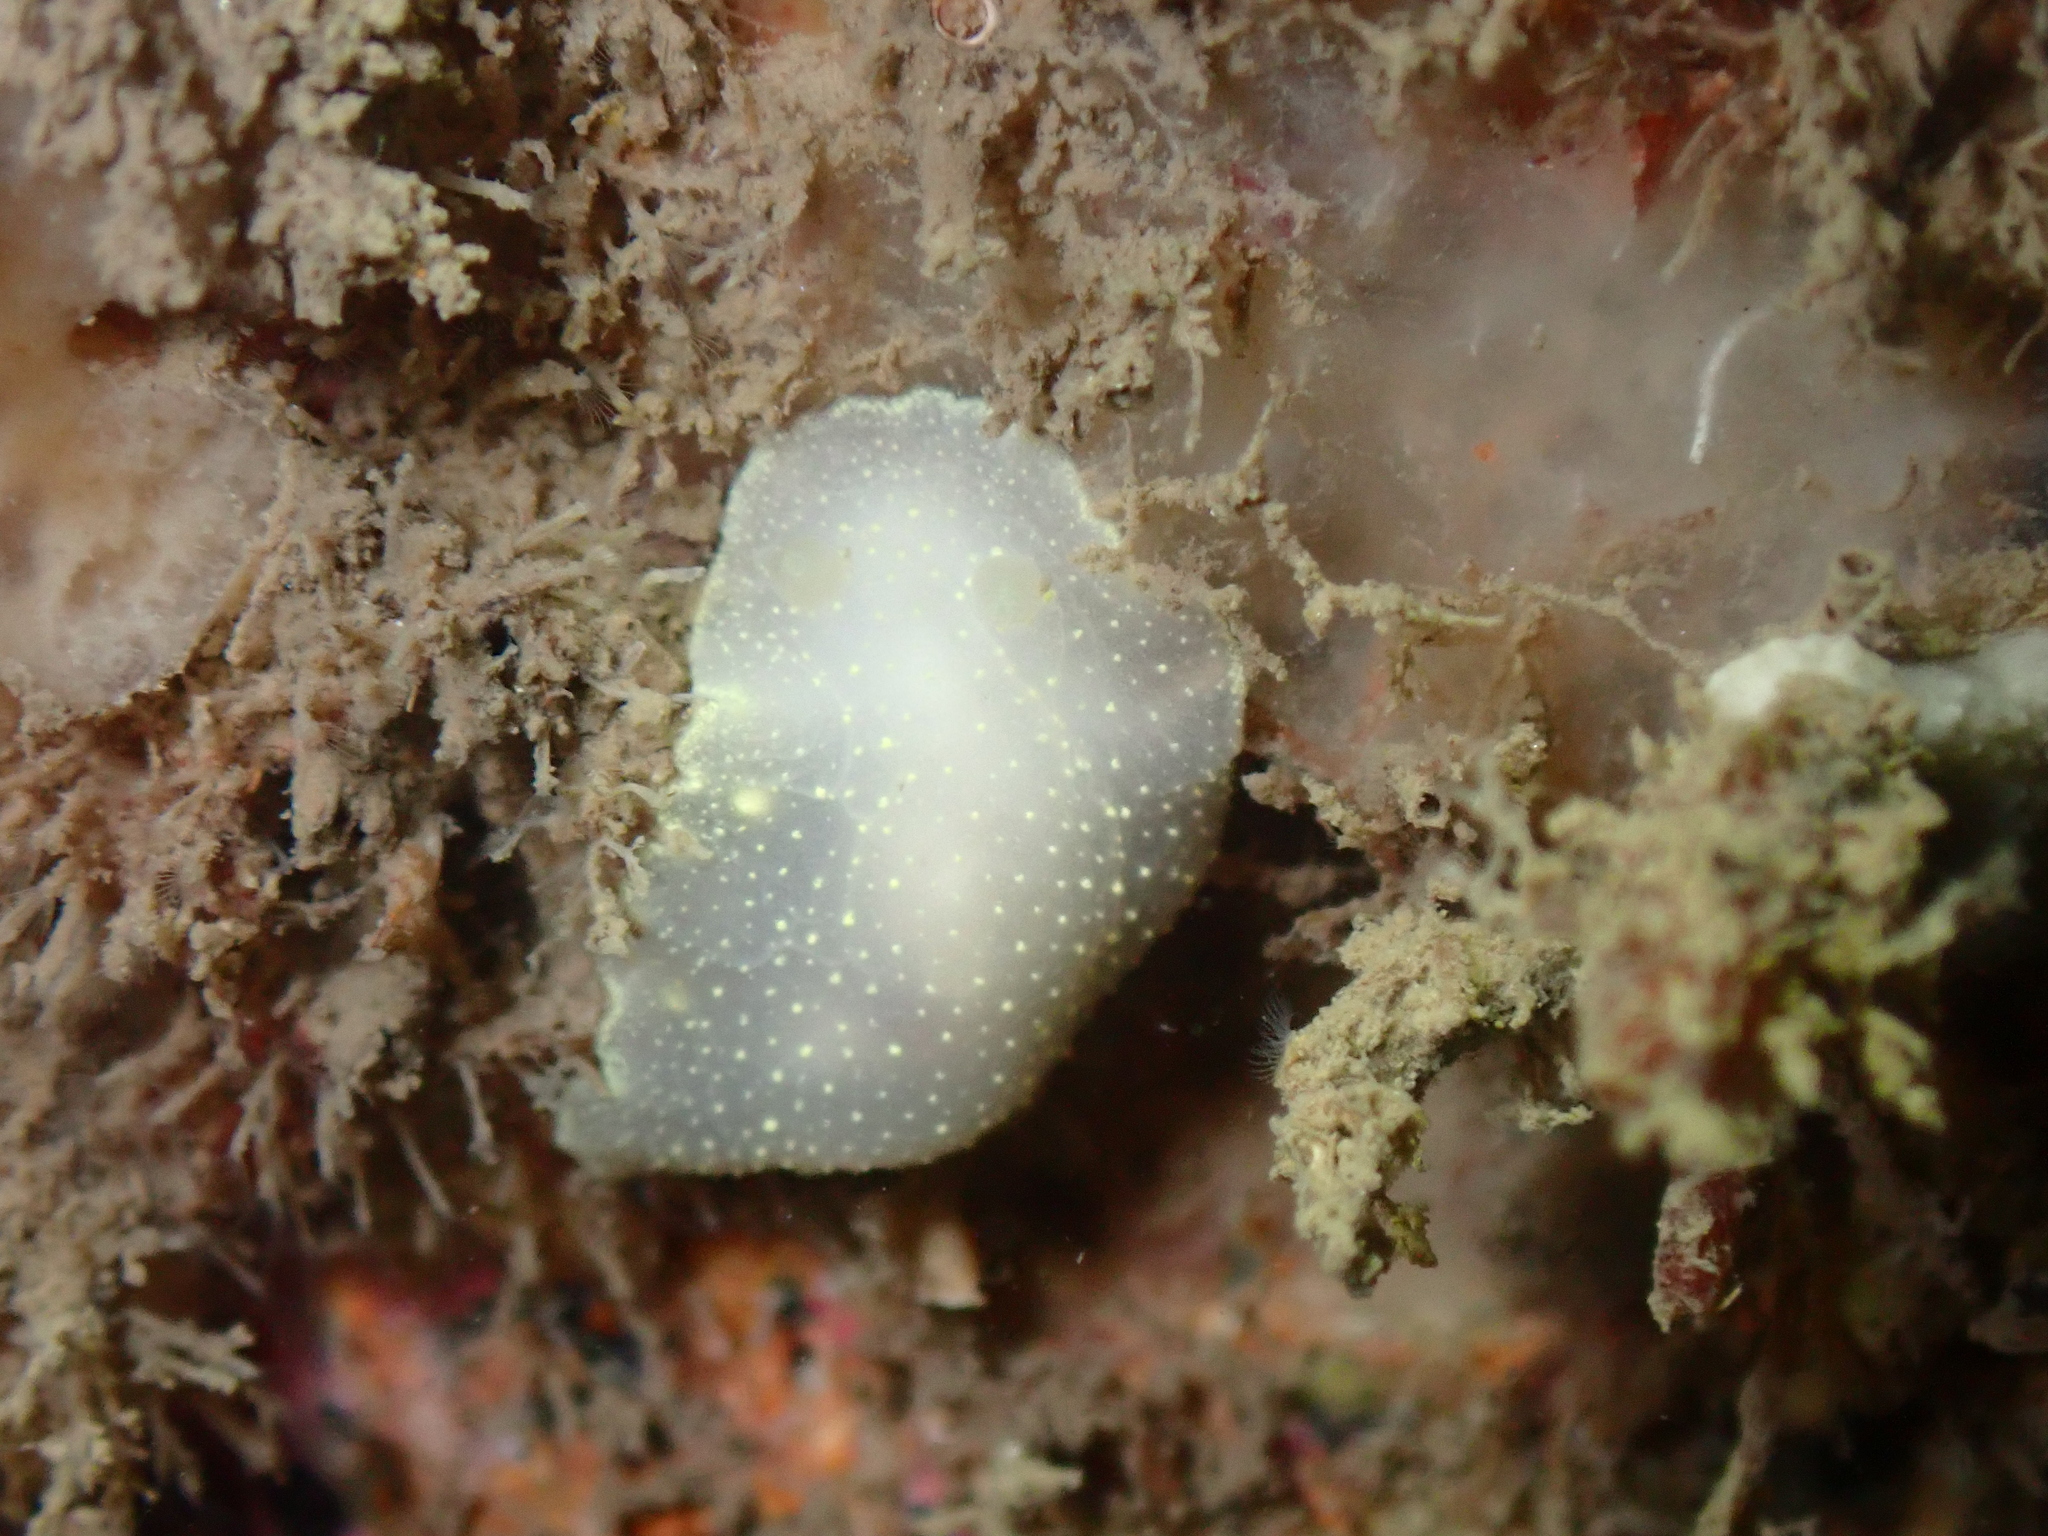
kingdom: Animalia
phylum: Mollusca
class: Gastropoda
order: Nudibranchia
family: Cadlinidae
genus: Cadlina
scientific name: Cadlina laevis
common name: White atlantic cadlina
